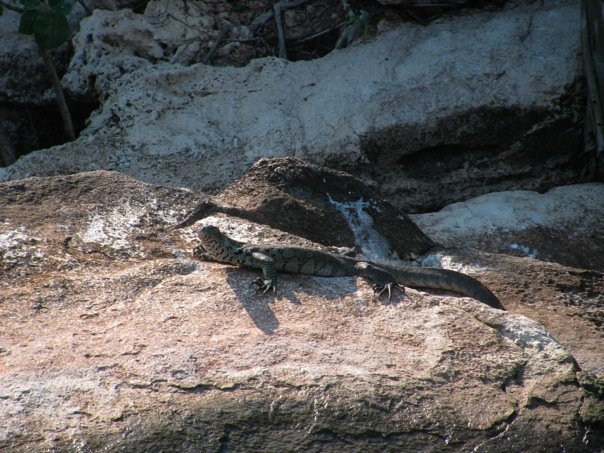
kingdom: Animalia
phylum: Chordata
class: Squamata
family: Varanidae
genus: Varanus
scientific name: Varanus niloticus
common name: Nile monitor
